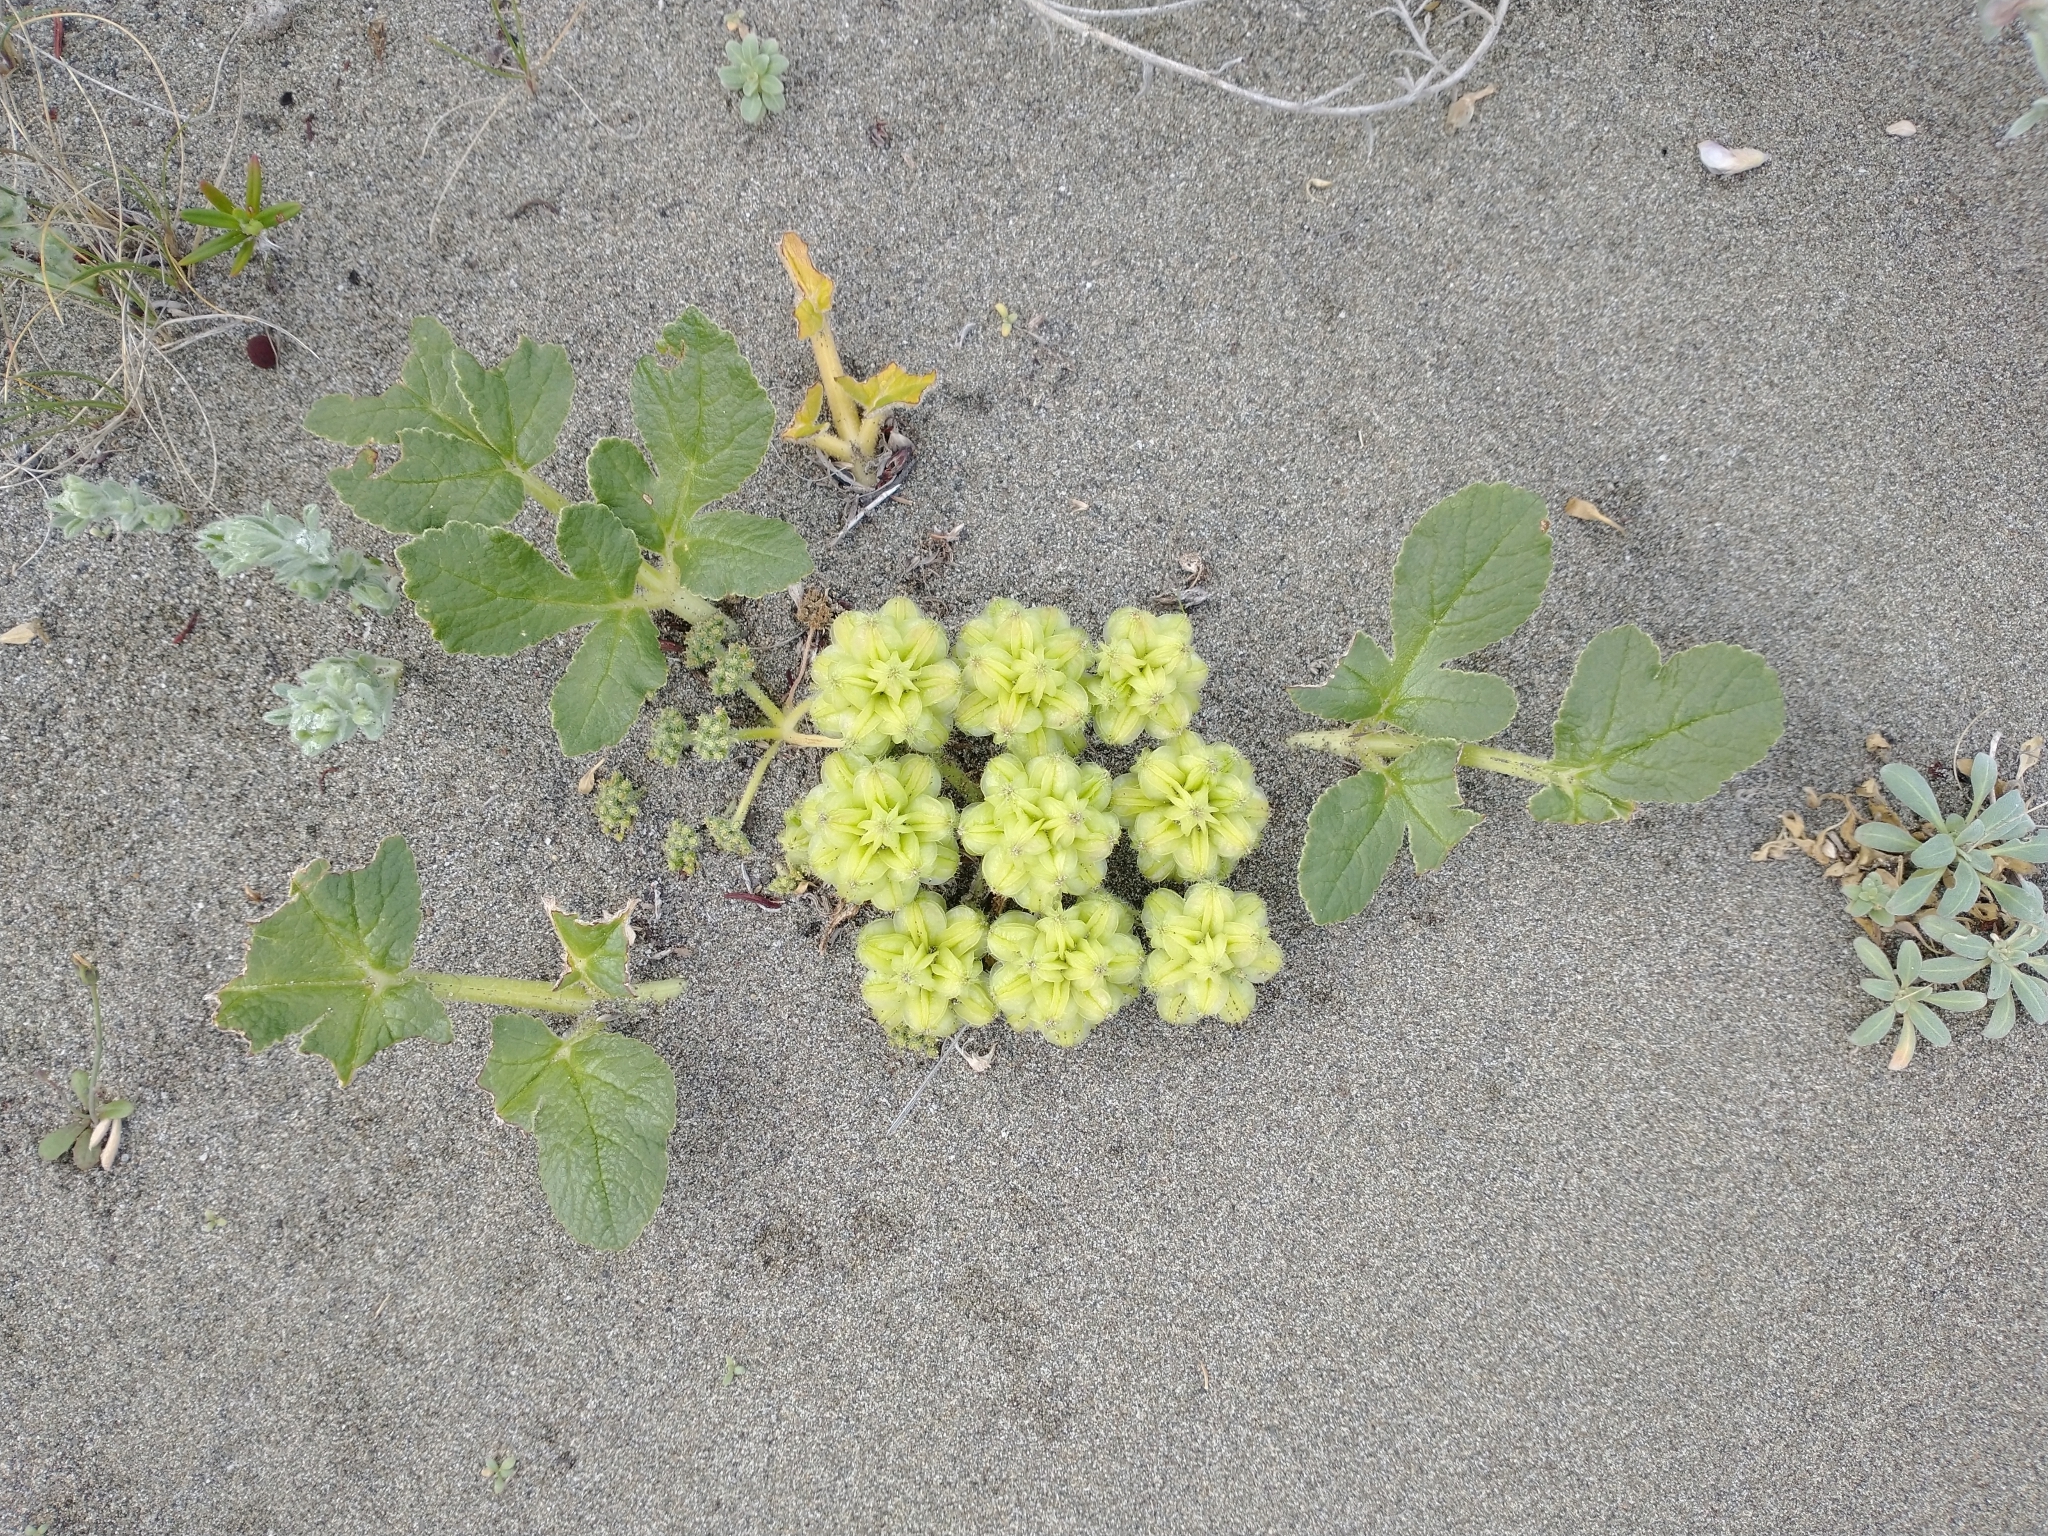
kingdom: Plantae
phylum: Tracheophyta
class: Magnoliopsida
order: Apiales
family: Apiaceae
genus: Glehnia
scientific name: Glehnia littoralis
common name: Beach silvertop
